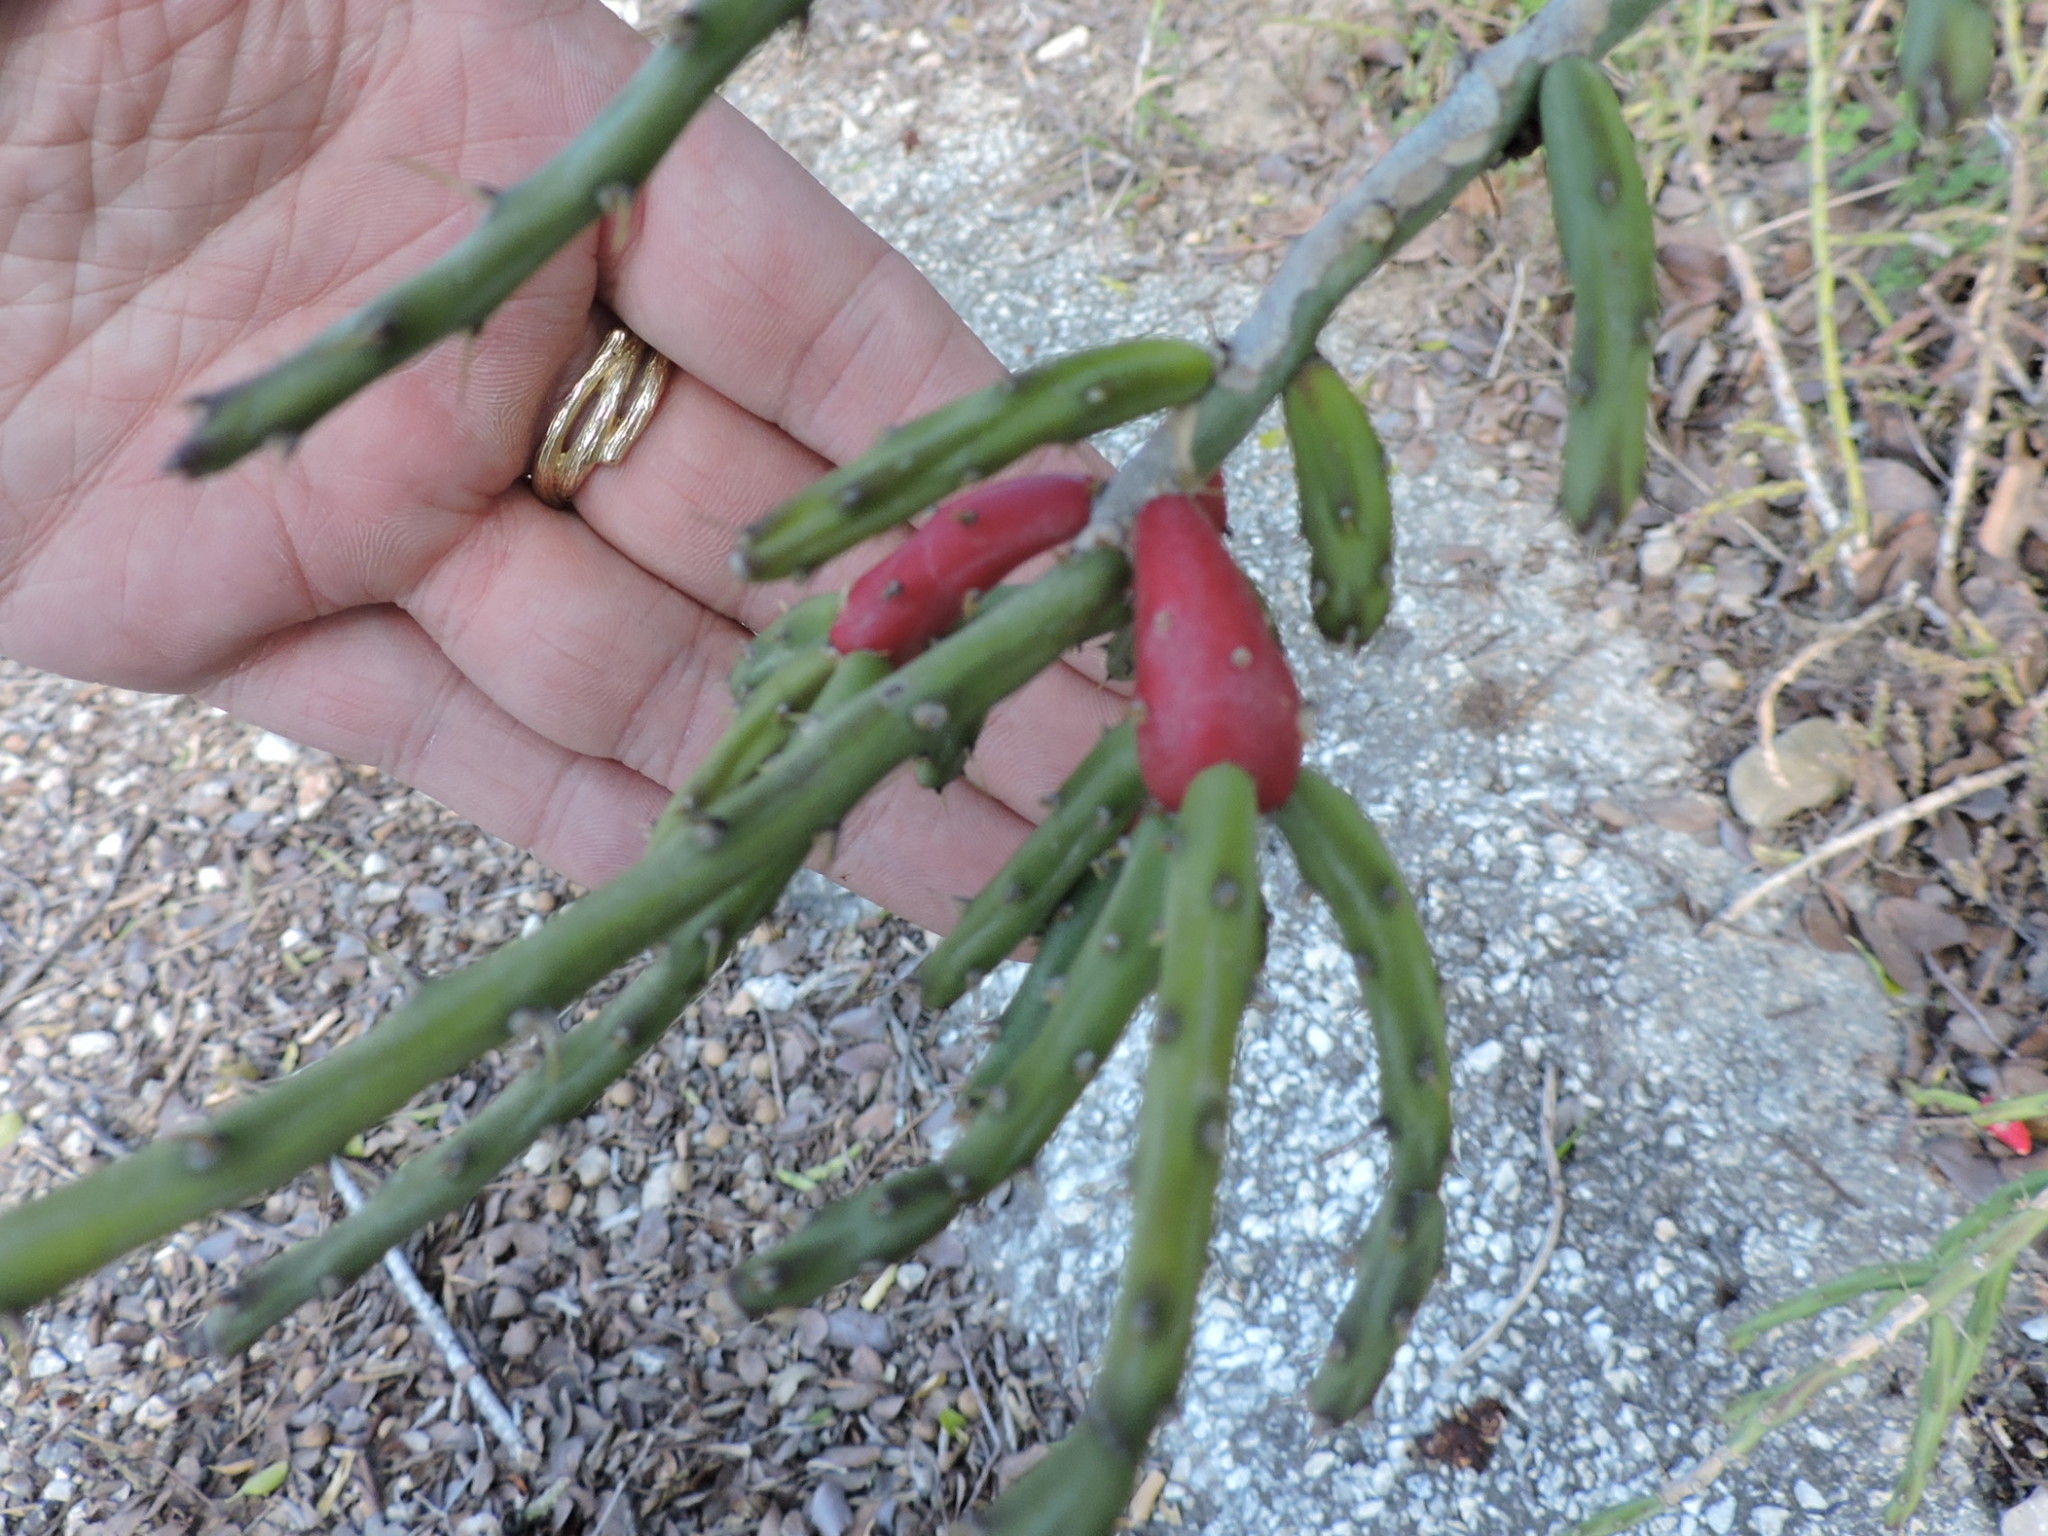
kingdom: Plantae
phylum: Tracheophyta
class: Magnoliopsida
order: Caryophyllales
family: Cactaceae
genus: Cylindropuntia
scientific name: Cylindropuntia leptocaulis
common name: Christmas cactus
